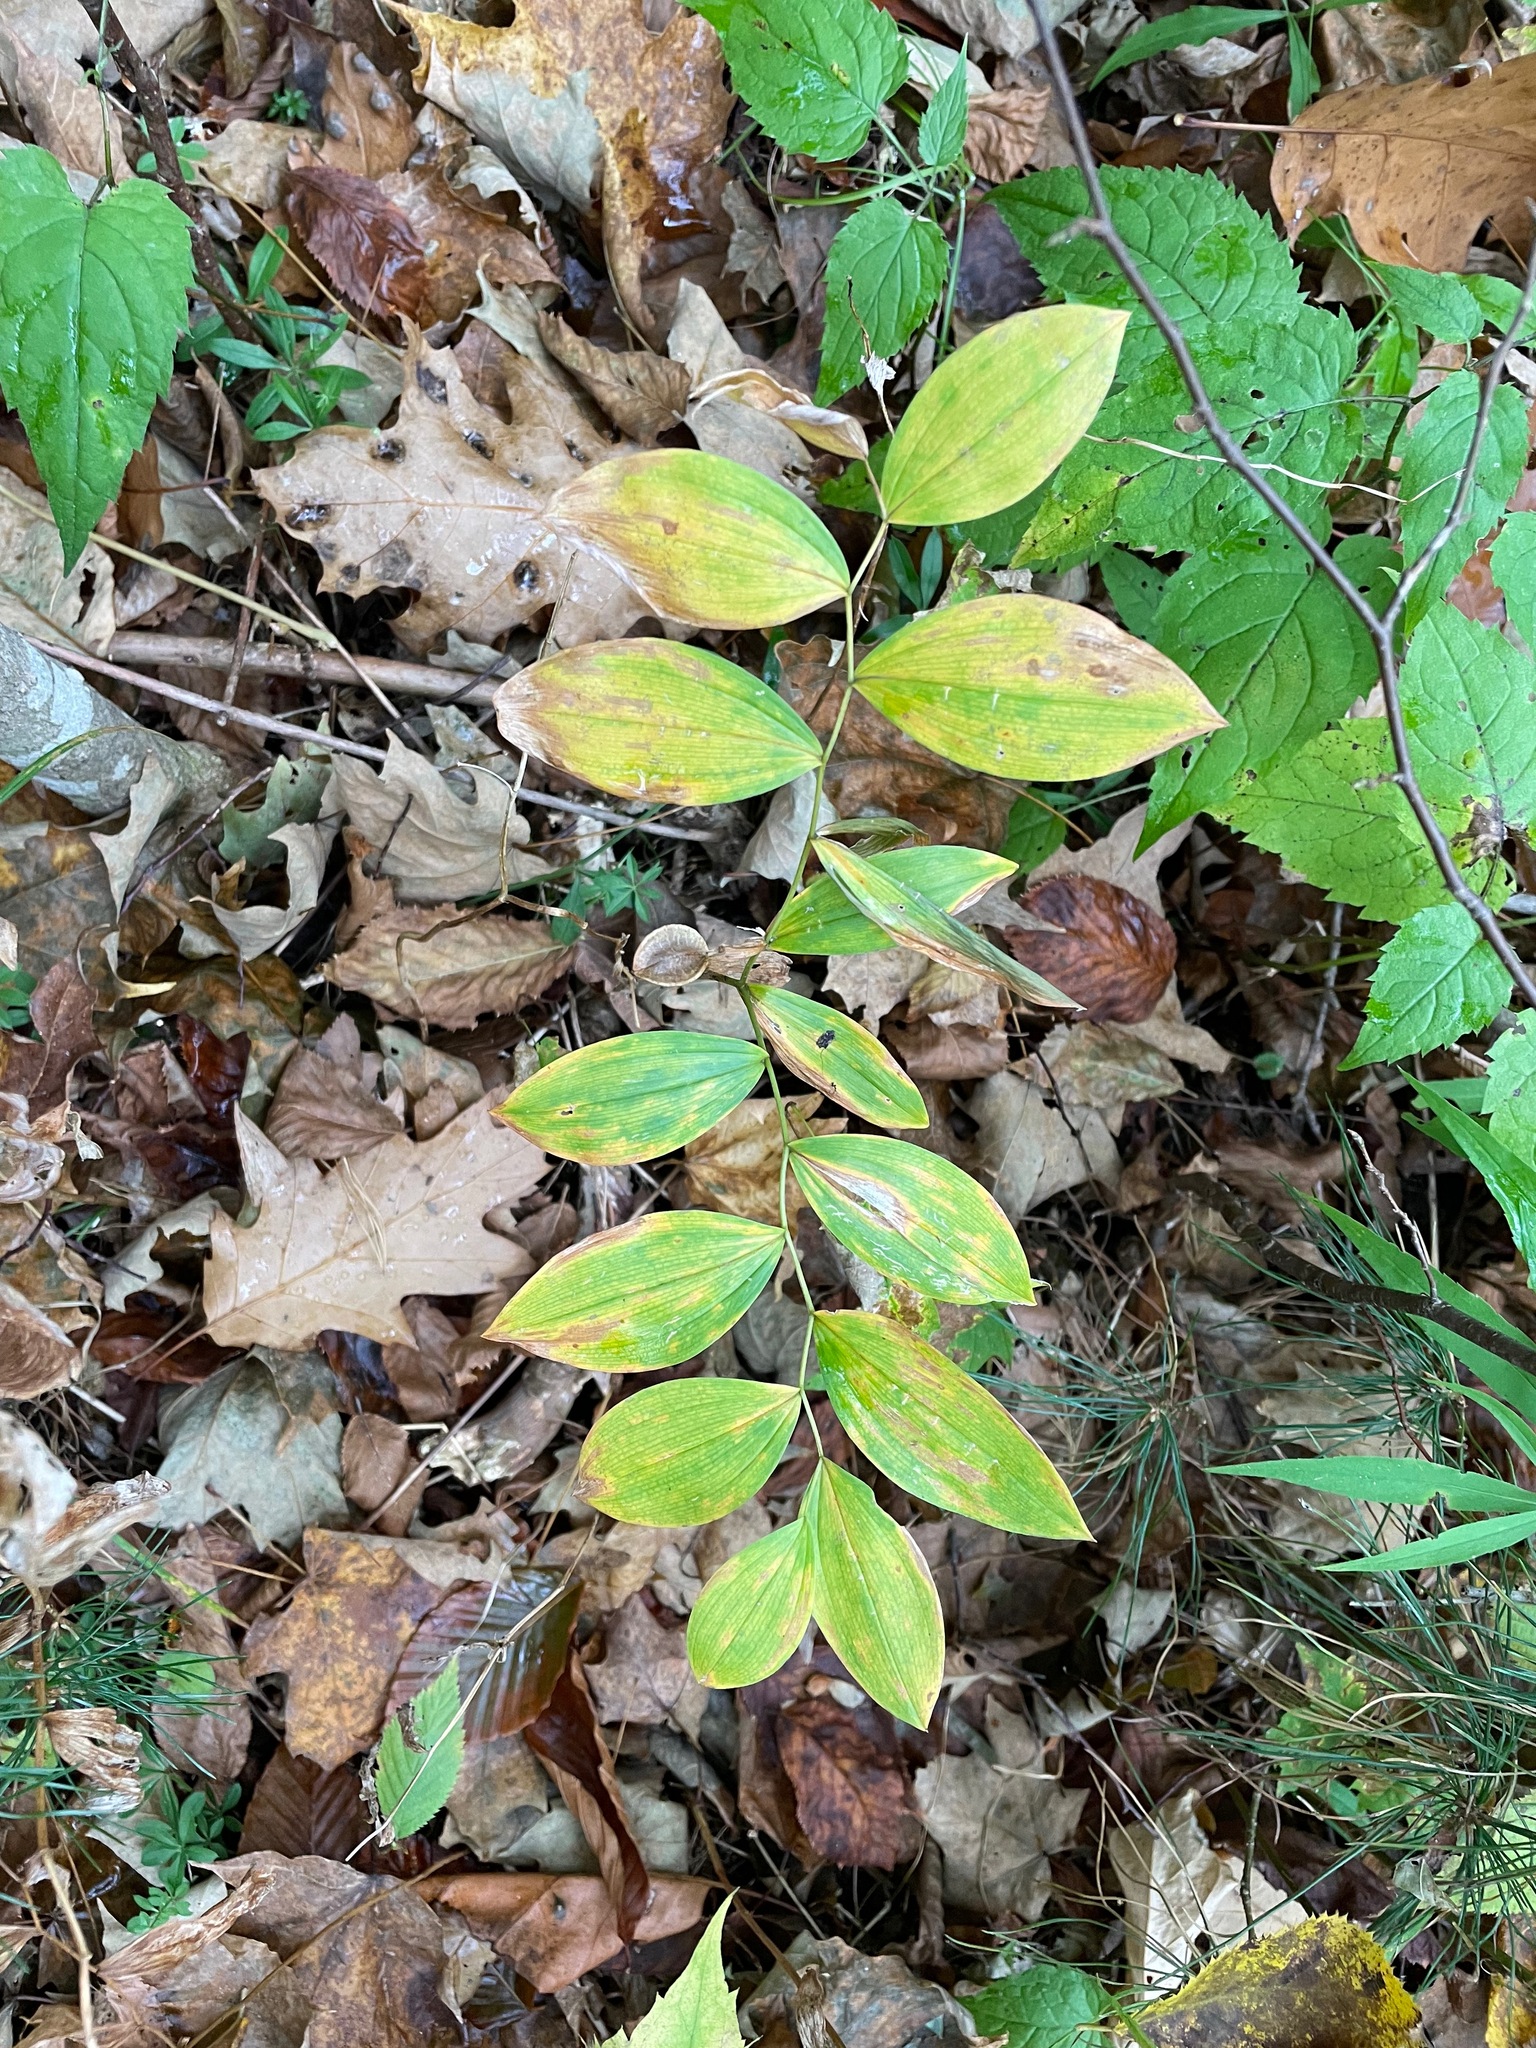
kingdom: Plantae
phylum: Tracheophyta
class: Liliopsida
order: Liliales
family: Colchicaceae
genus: Uvularia
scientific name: Uvularia sessilifolia
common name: Straw-lily
